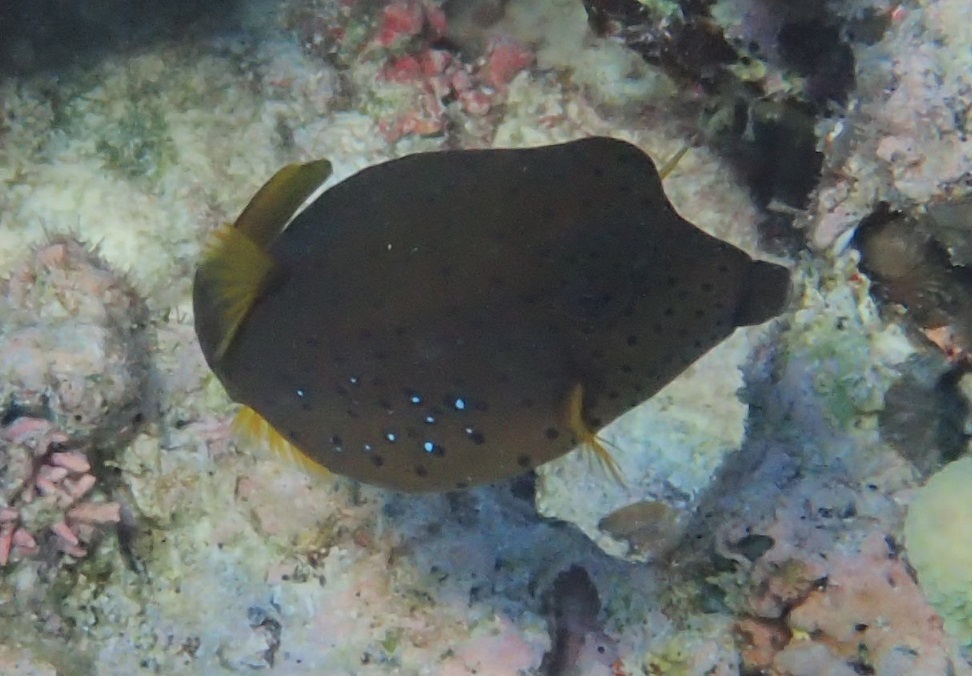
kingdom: Animalia
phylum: Chordata
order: Tetraodontiformes
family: Ostraciidae
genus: Ostracion
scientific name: Ostracion cubicus
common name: Cube trunkfish
